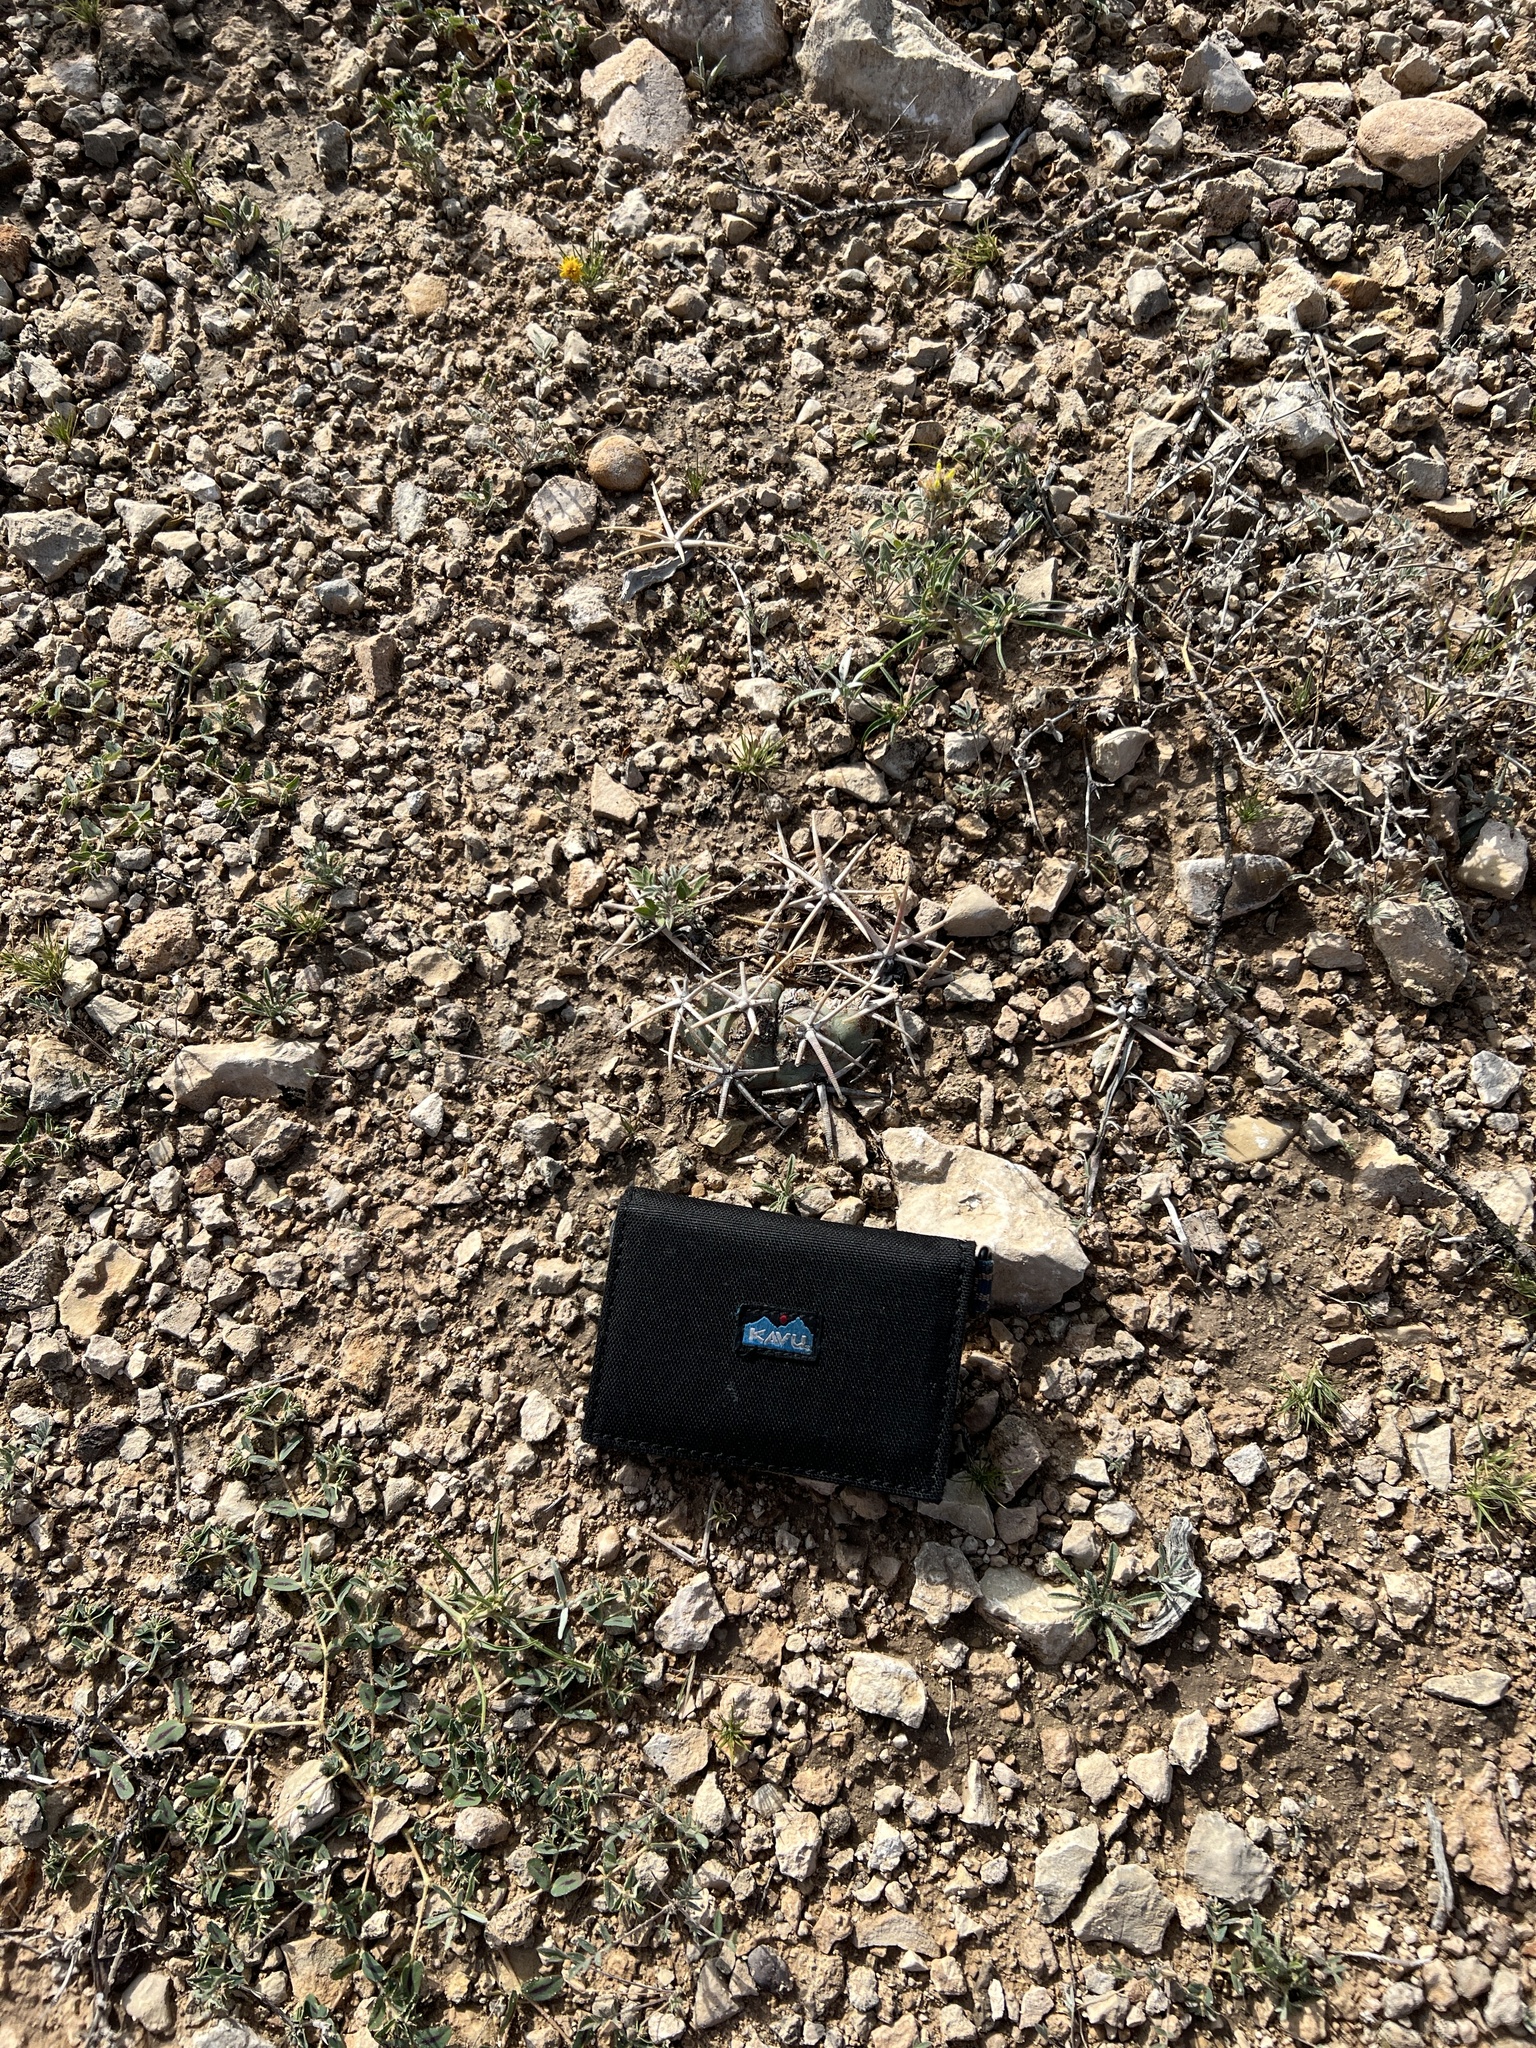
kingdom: Plantae
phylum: Tracheophyta
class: Magnoliopsida
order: Caryophyllales
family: Cactaceae
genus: Echinocactus
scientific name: Echinocactus horizonthalonius
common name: Devilshead
